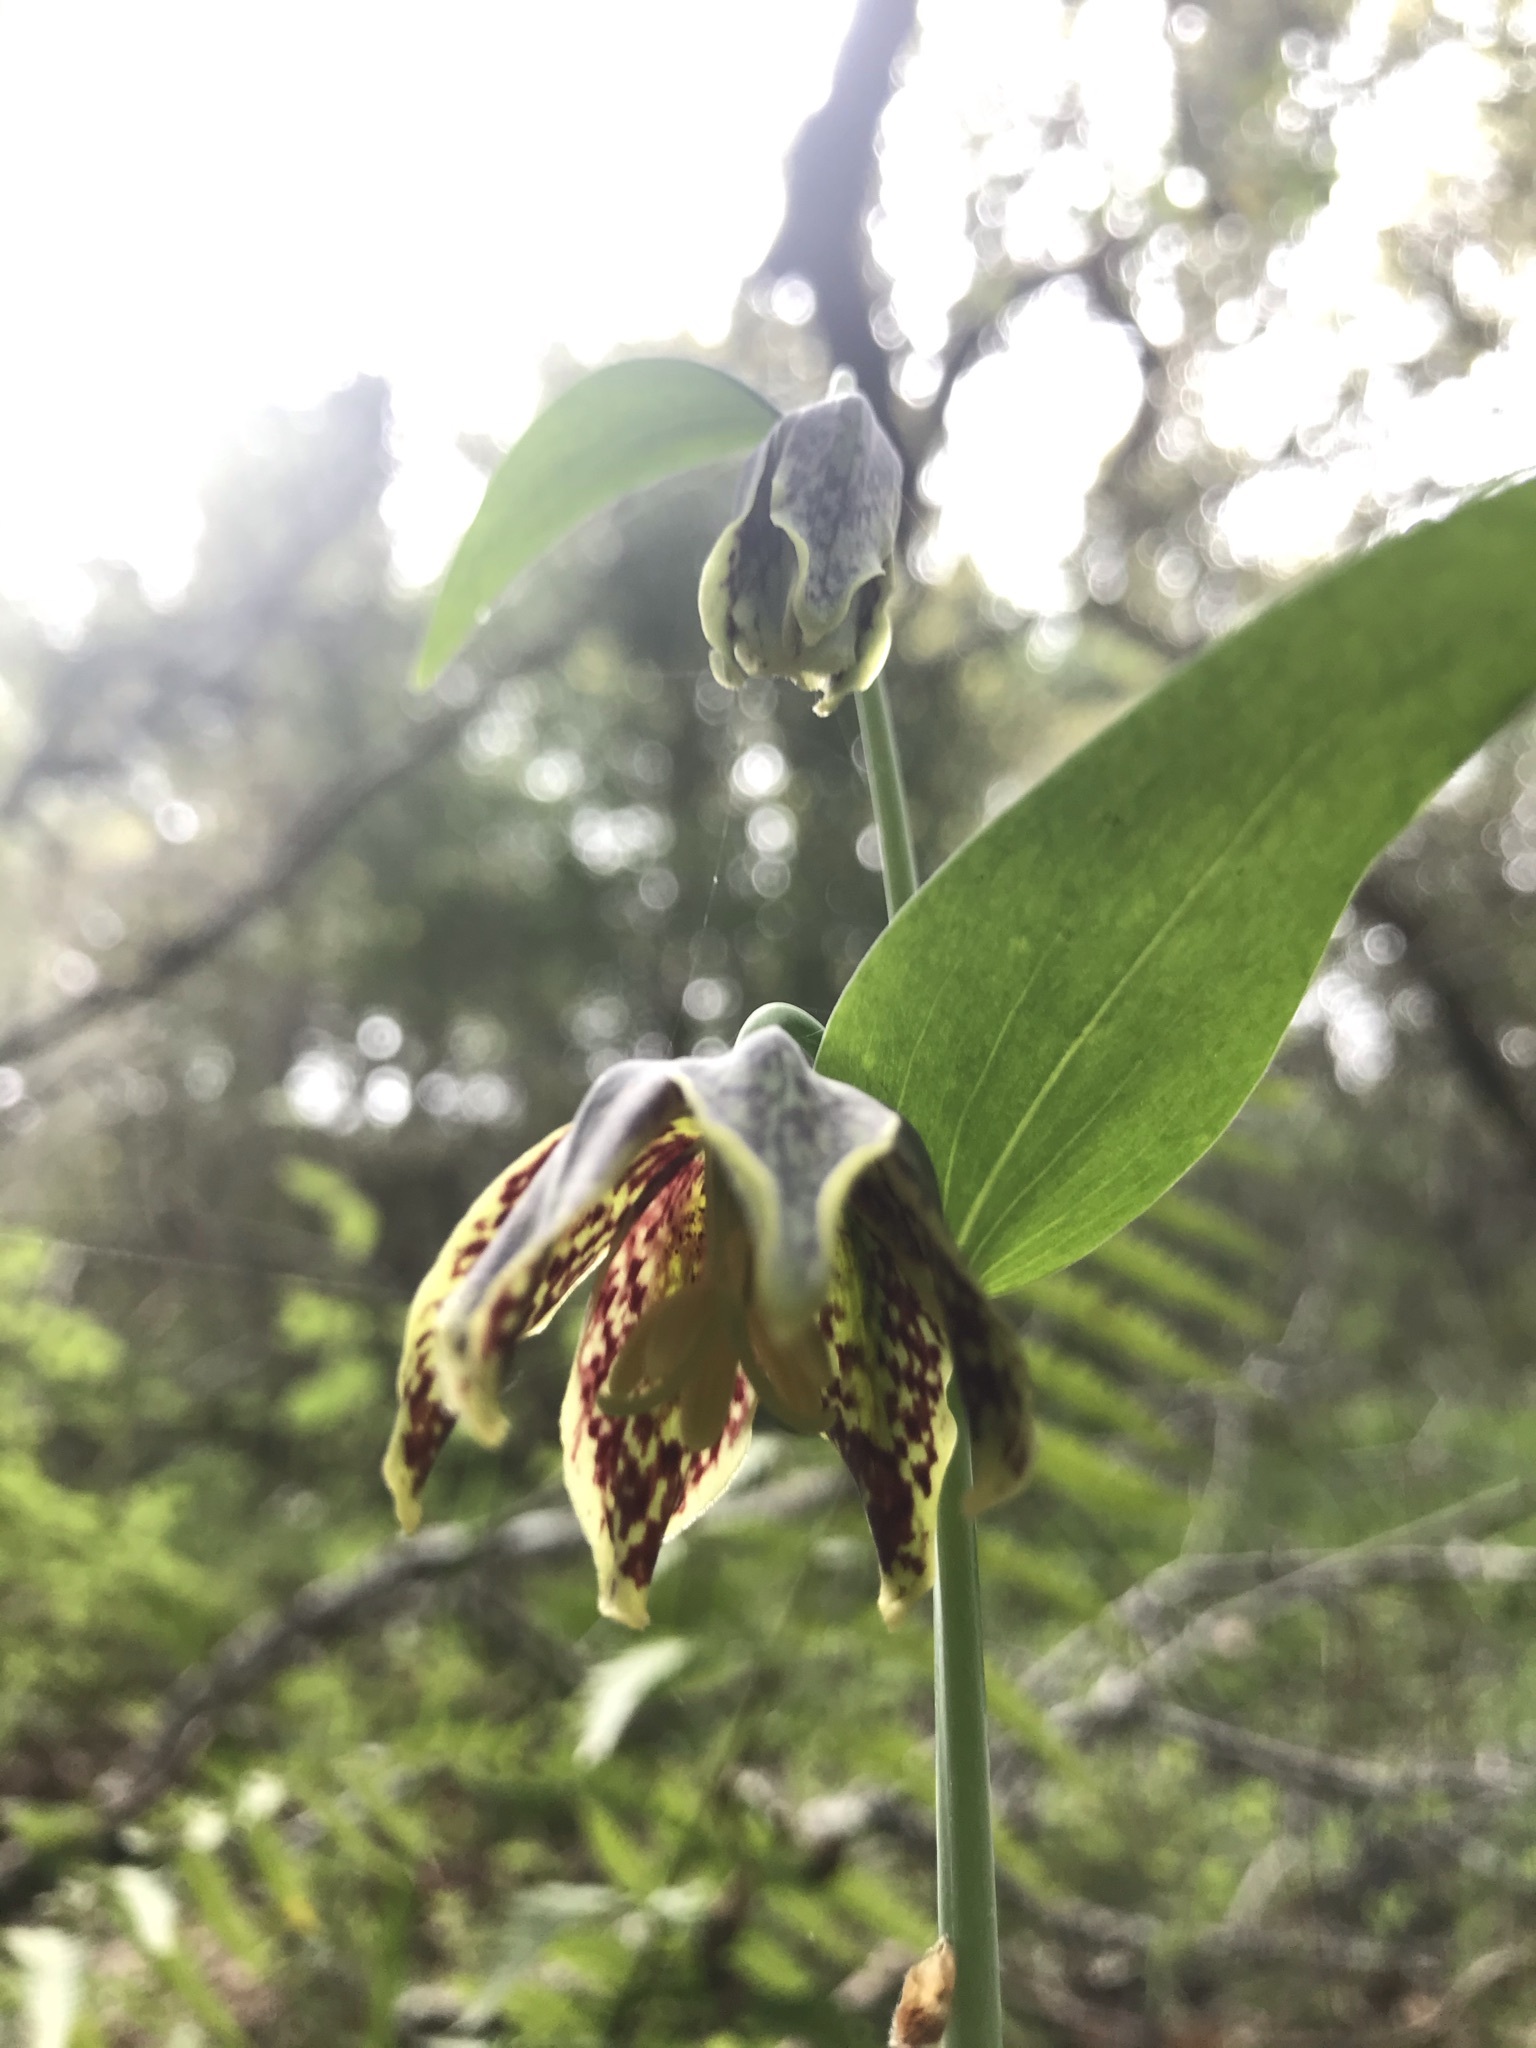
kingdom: Plantae
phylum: Tracheophyta
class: Liliopsida
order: Liliales
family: Liliaceae
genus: Fritillaria
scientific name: Fritillaria affinis
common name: Ojai fritillary
